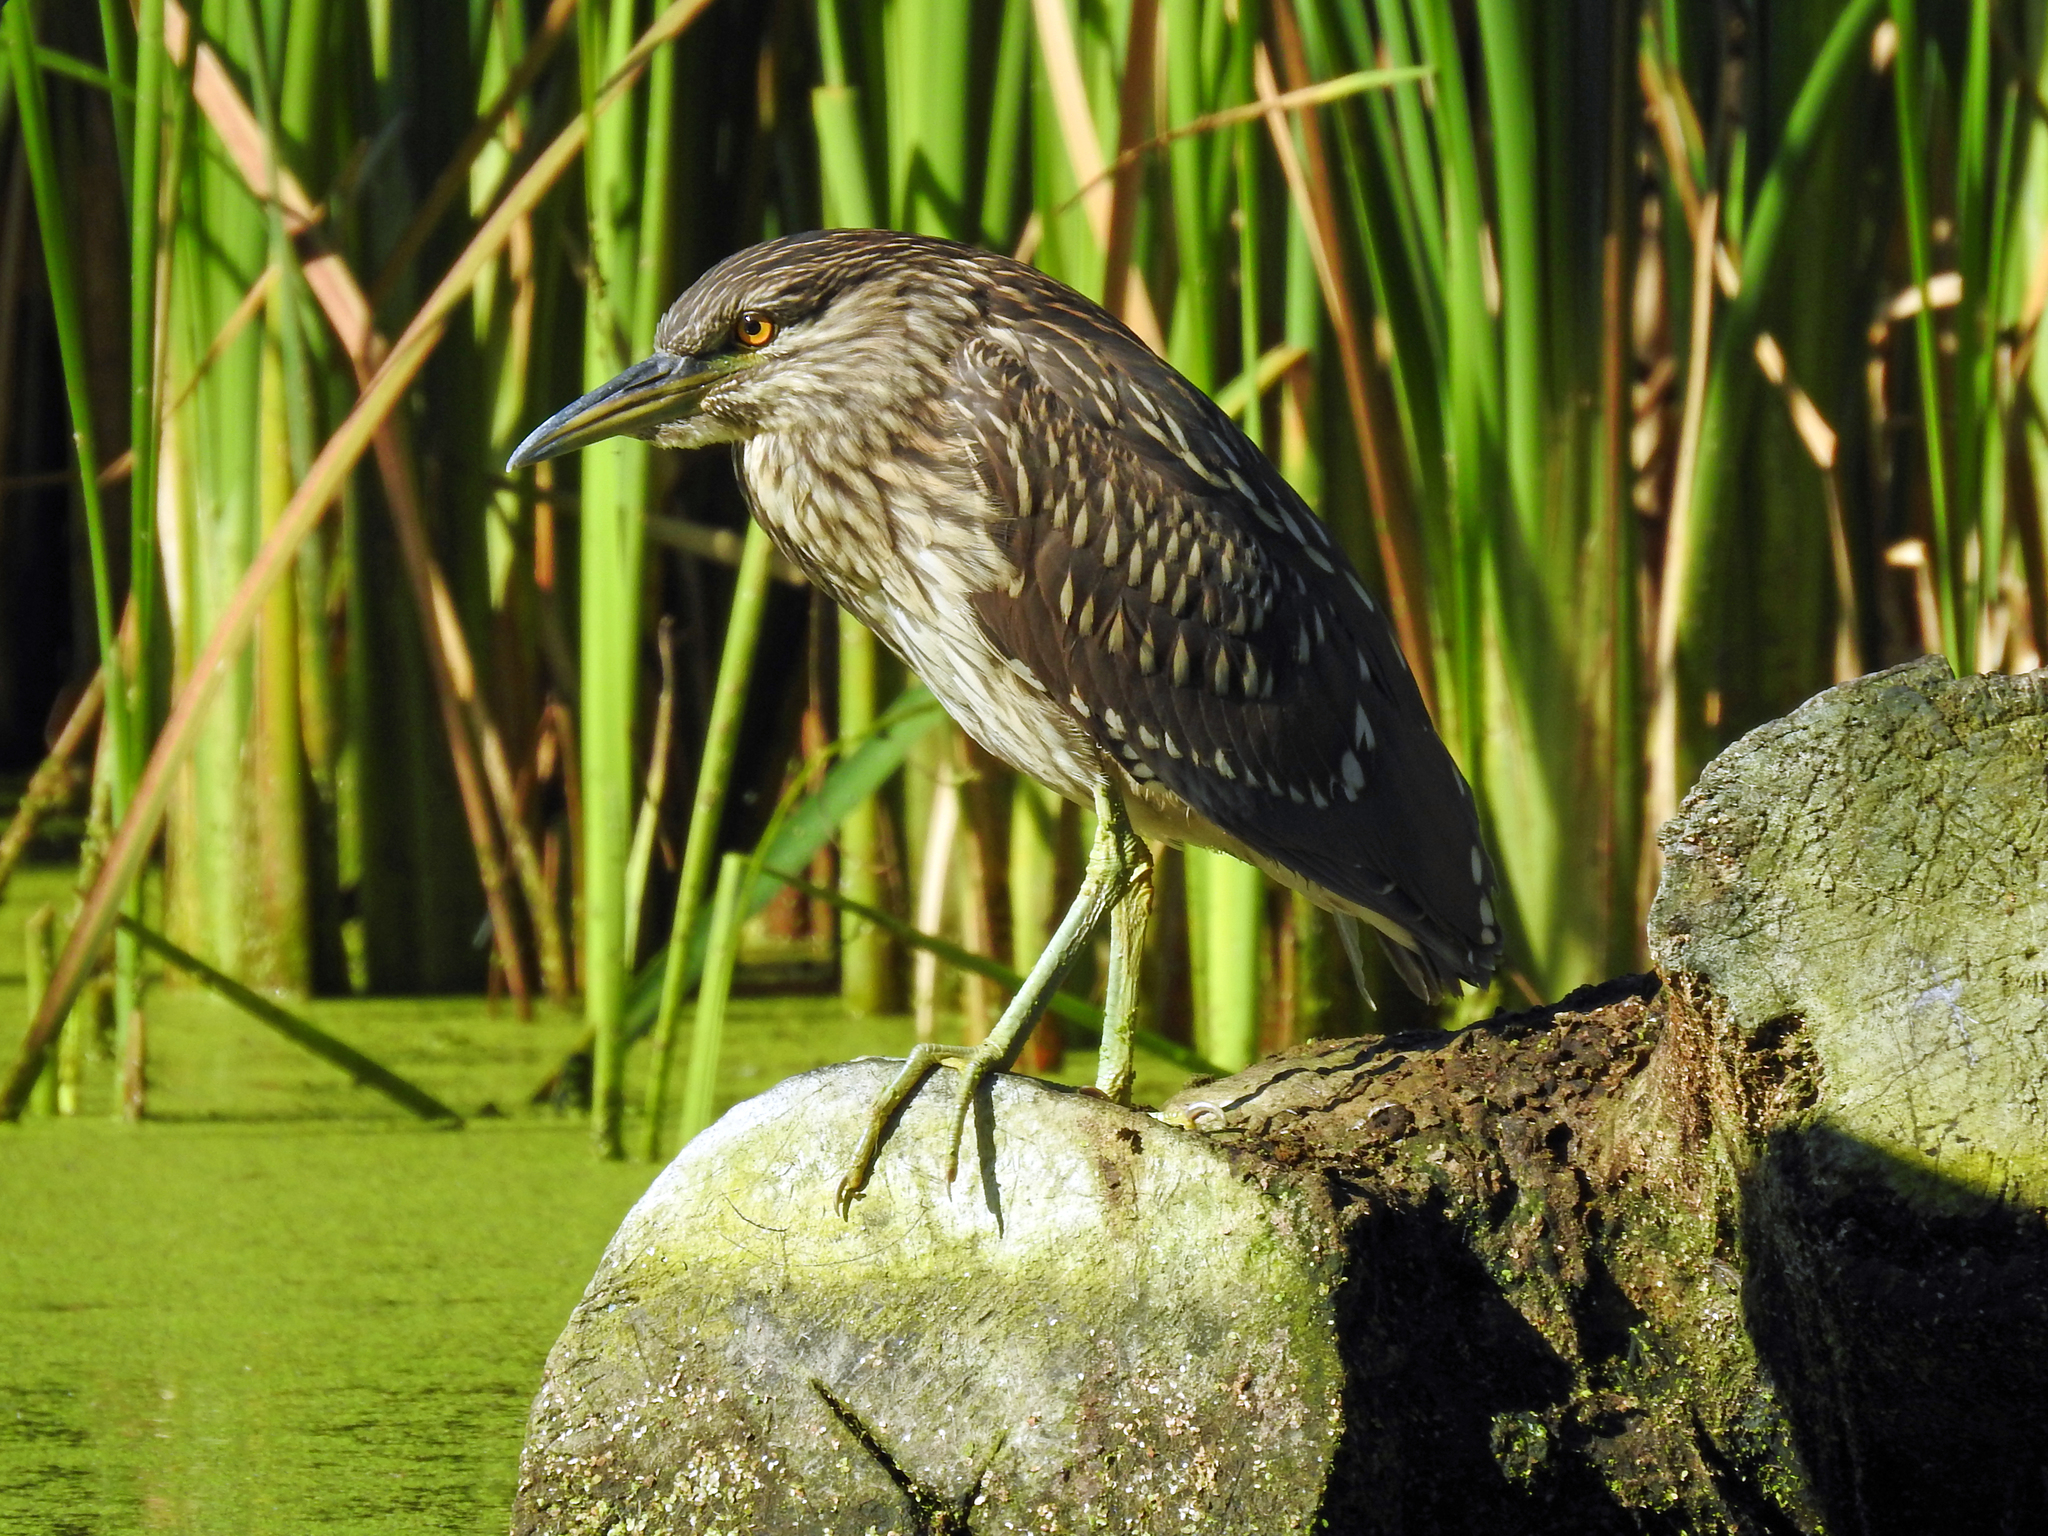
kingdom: Animalia
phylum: Chordata
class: Aves
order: Pelecaniformes
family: Ardeidae
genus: Nycticorax
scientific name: Nycticorax nycticorax
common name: Black-crowned night heron
